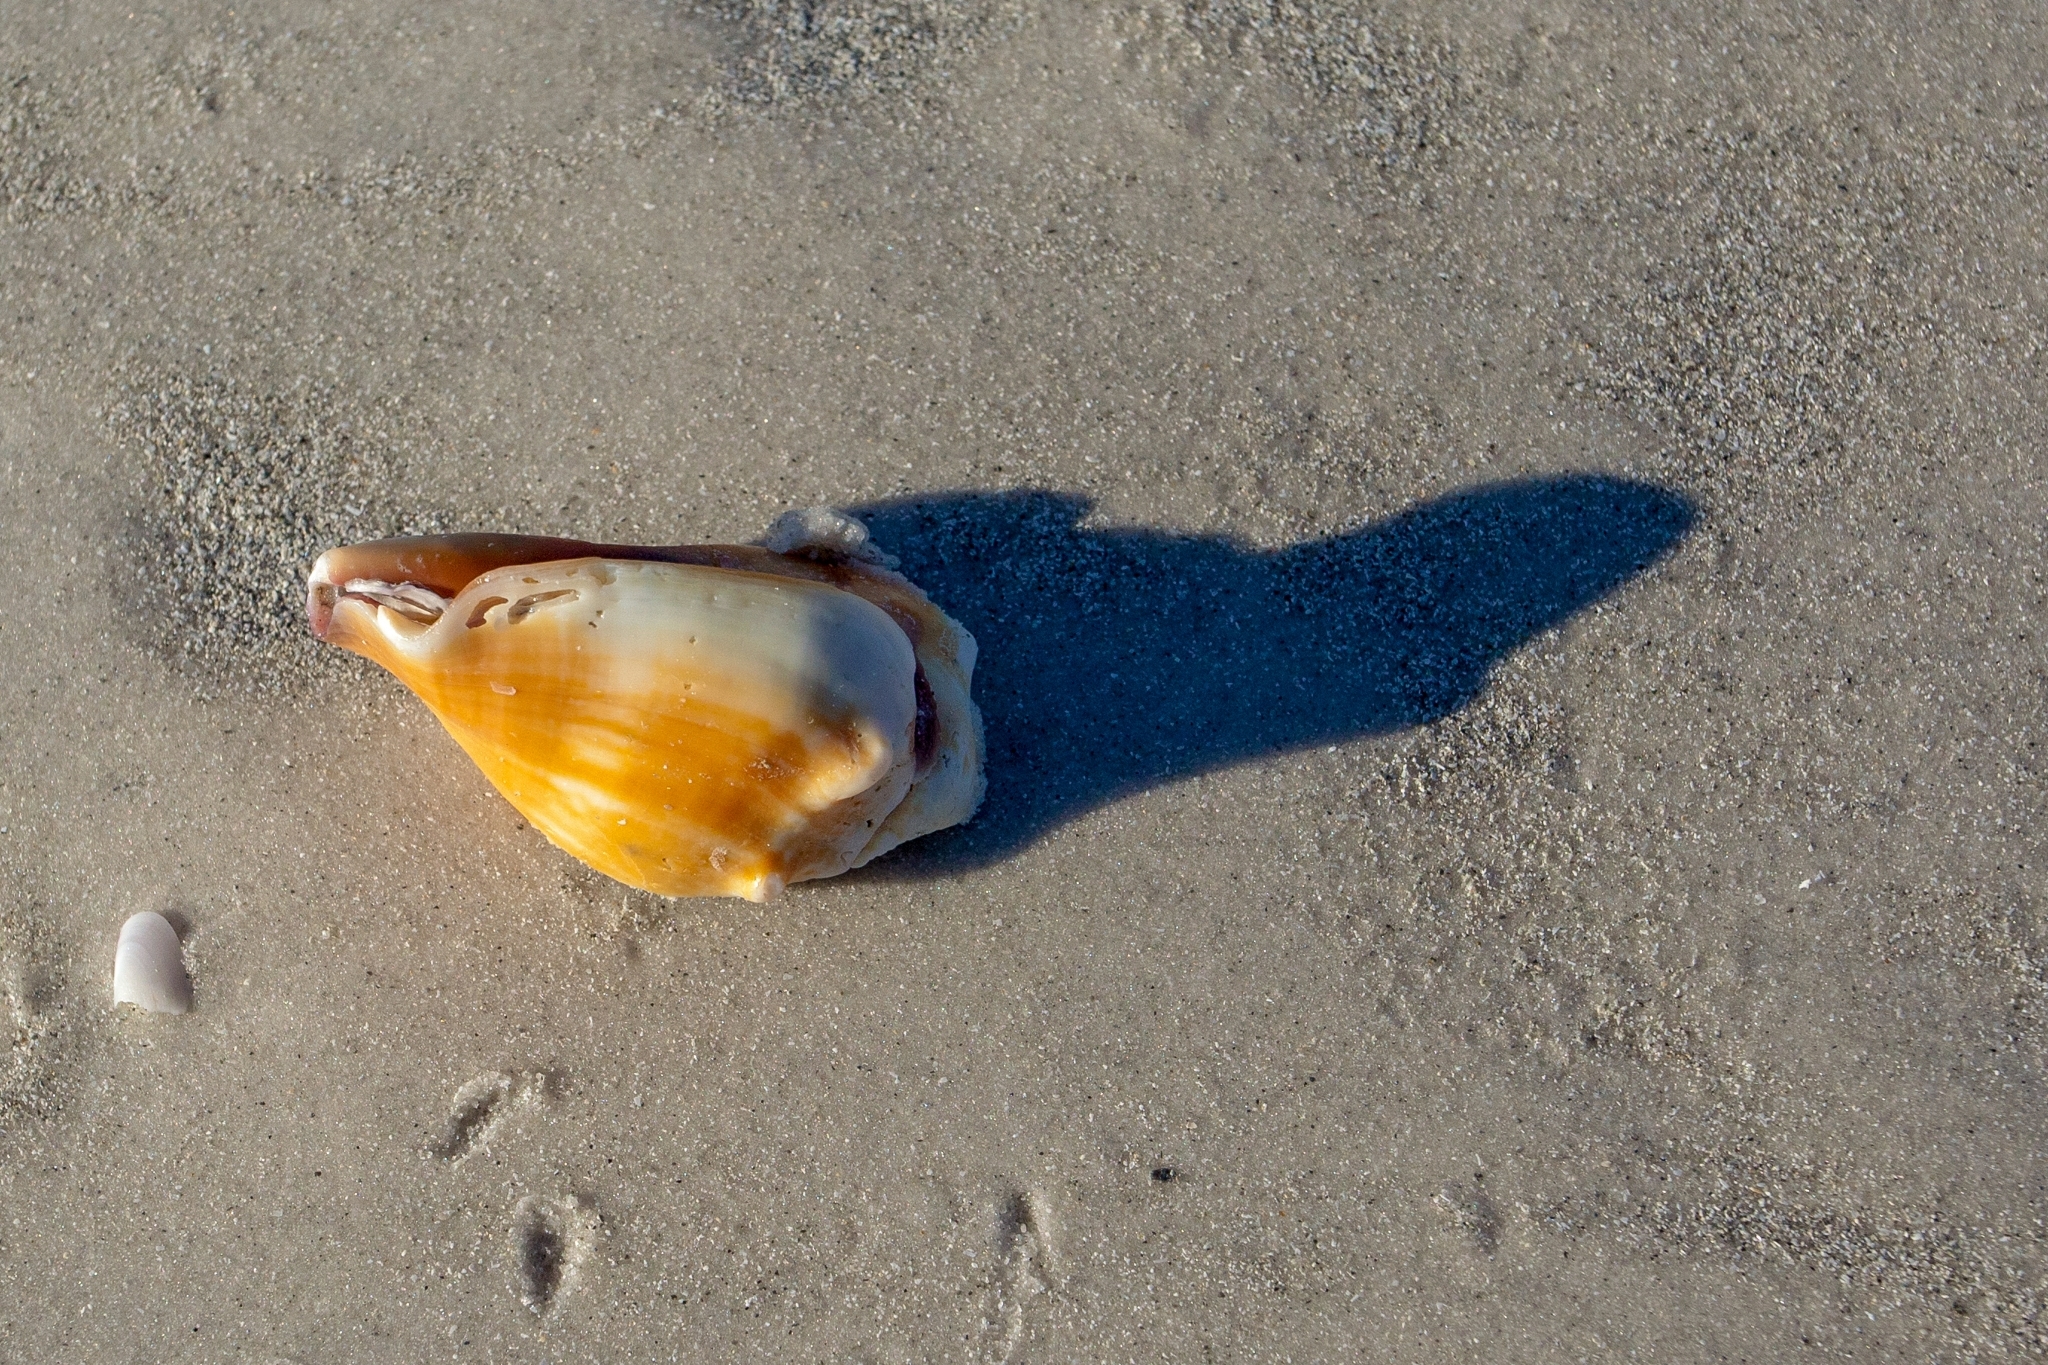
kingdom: Animalia
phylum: Mollusca
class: Gastropoda
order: Littorinimorpha
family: Strombidae
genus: Strombus
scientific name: Strombus alatus
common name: Florida fighting conch
